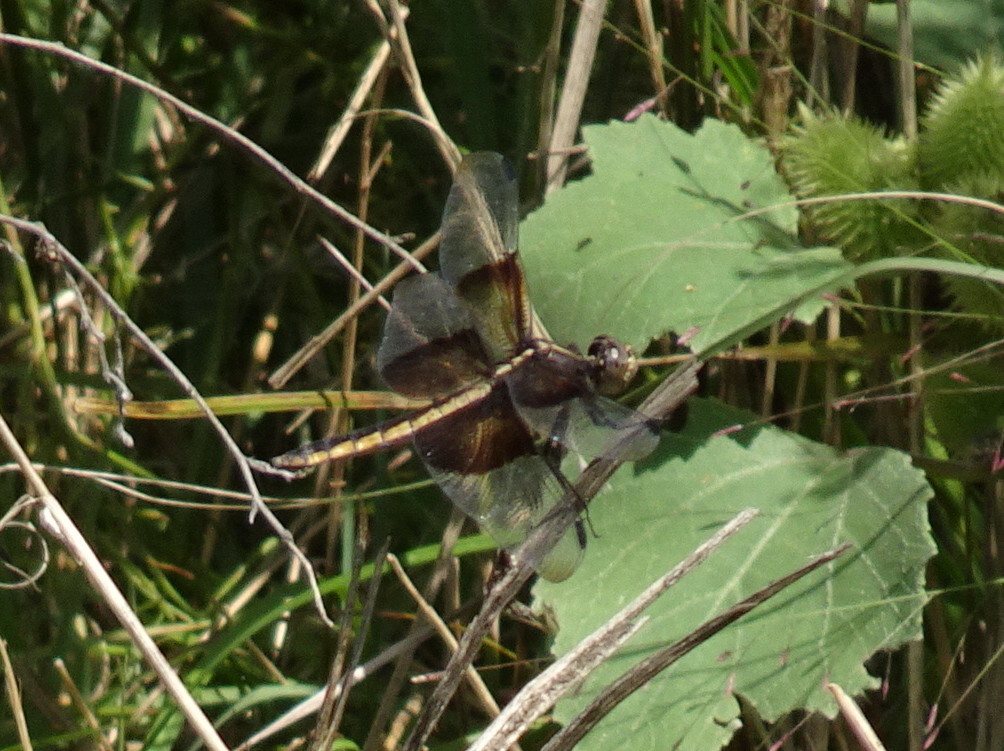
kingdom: Animalia
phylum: Arthropoda
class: Insecta
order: Odonata
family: Libellulidae
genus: Libellula
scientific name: Libellula luctuosa
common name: Widow skimmer
